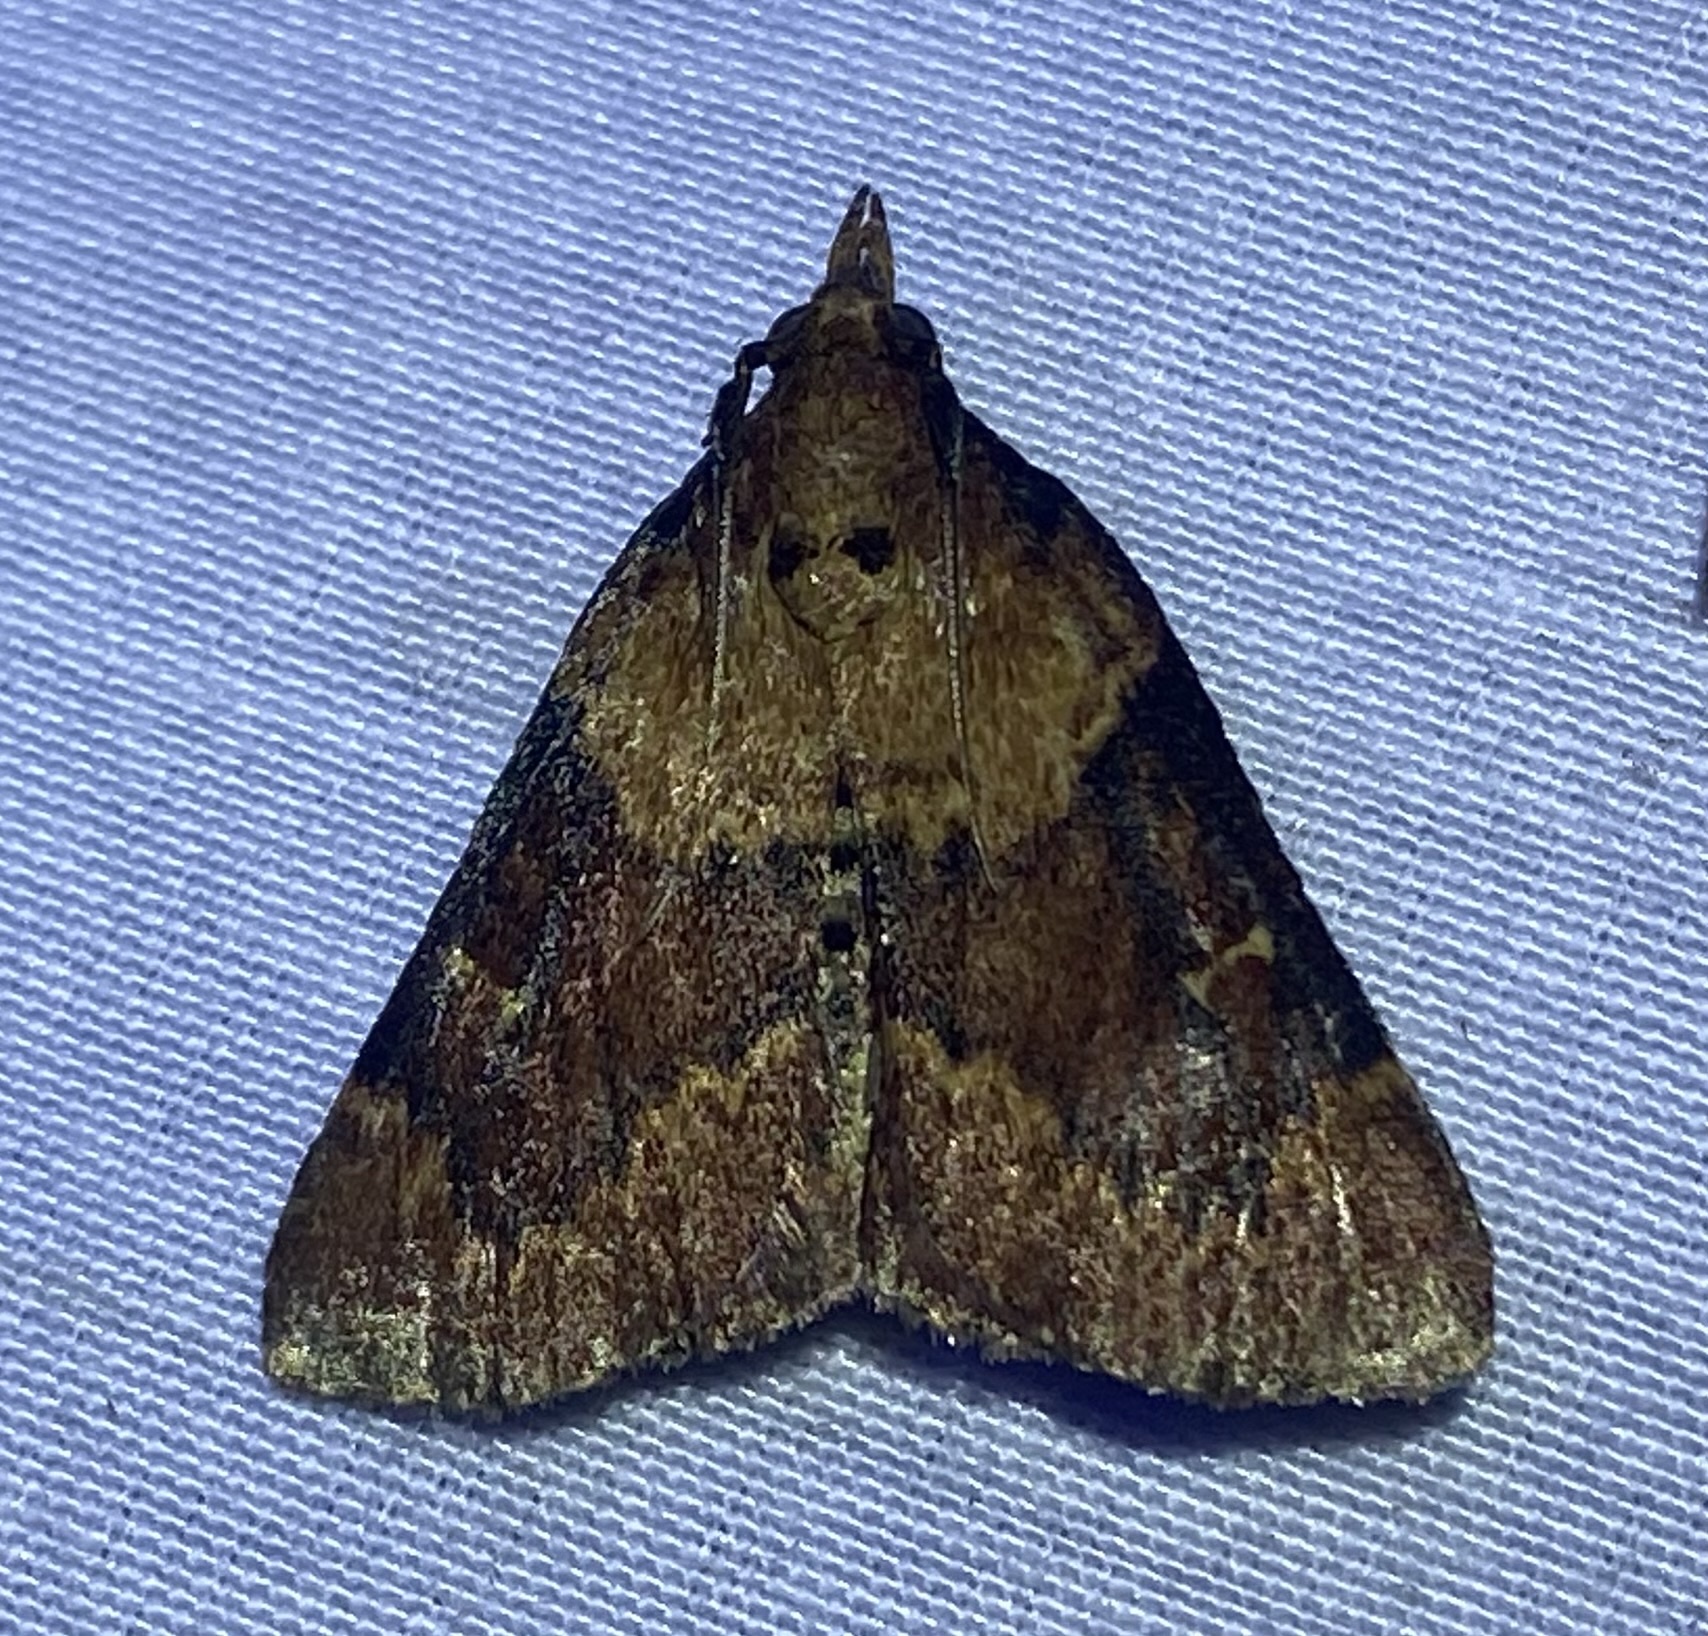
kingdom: Animalia
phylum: Arthropoda
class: Insecta
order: Lepidoptera
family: Pyralidae
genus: Omphalocera
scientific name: Omphalocera munroei
